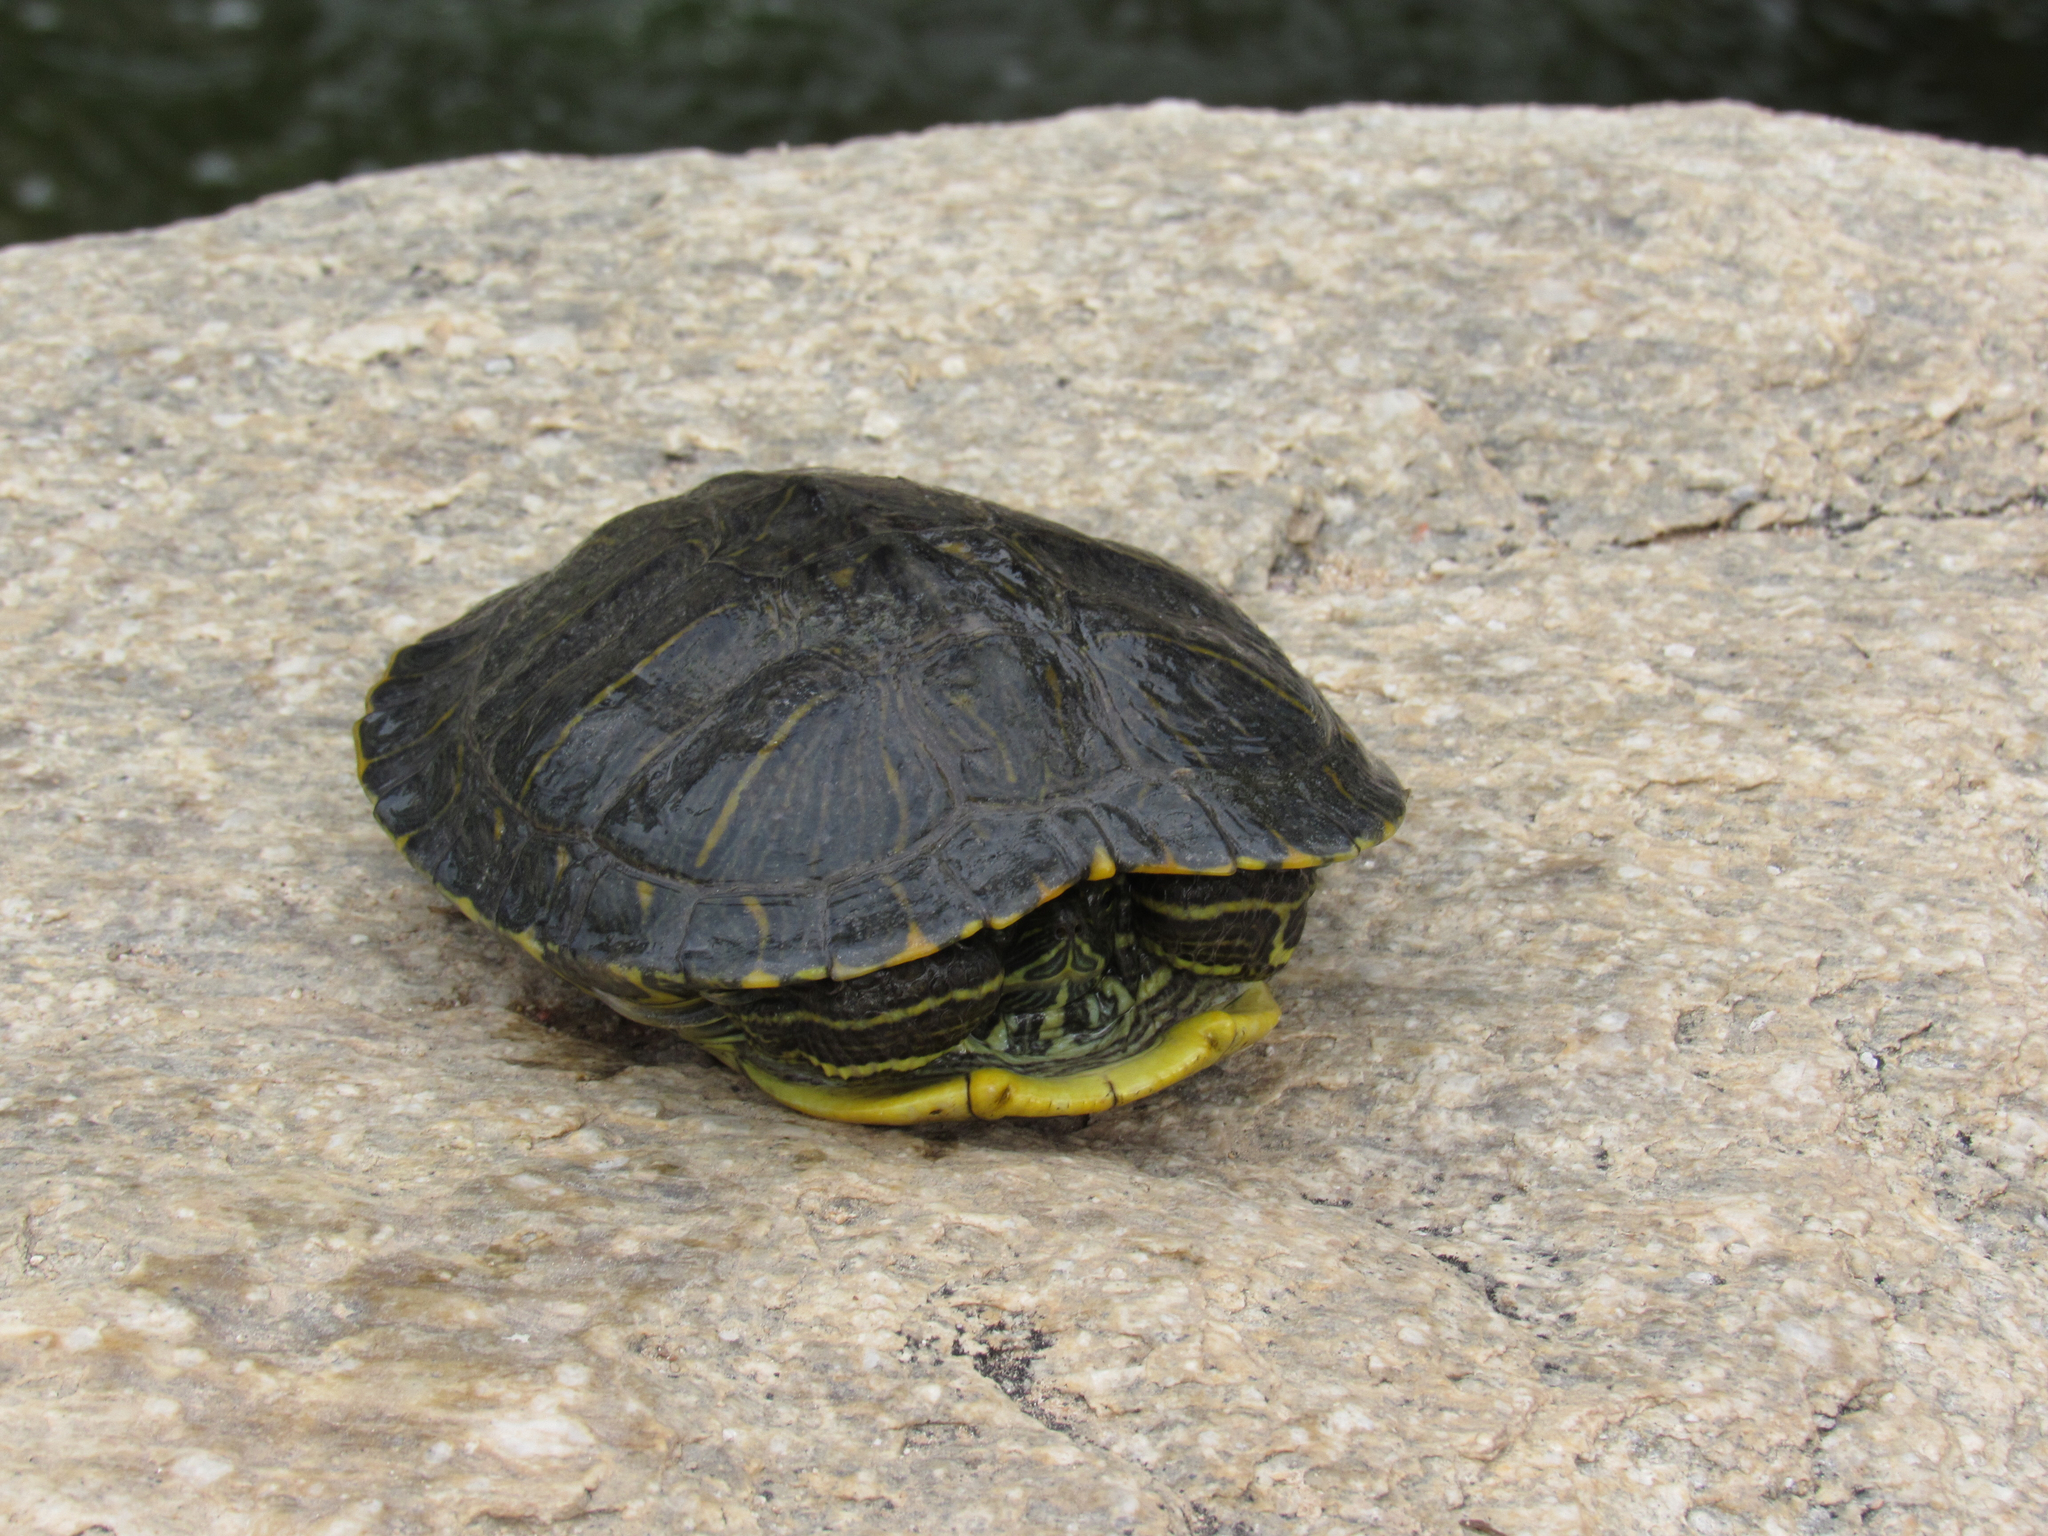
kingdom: Animalia
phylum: Chordata
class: Testudines
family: Emydidae
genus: Trachemys
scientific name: Trachemys scripta
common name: Slider
